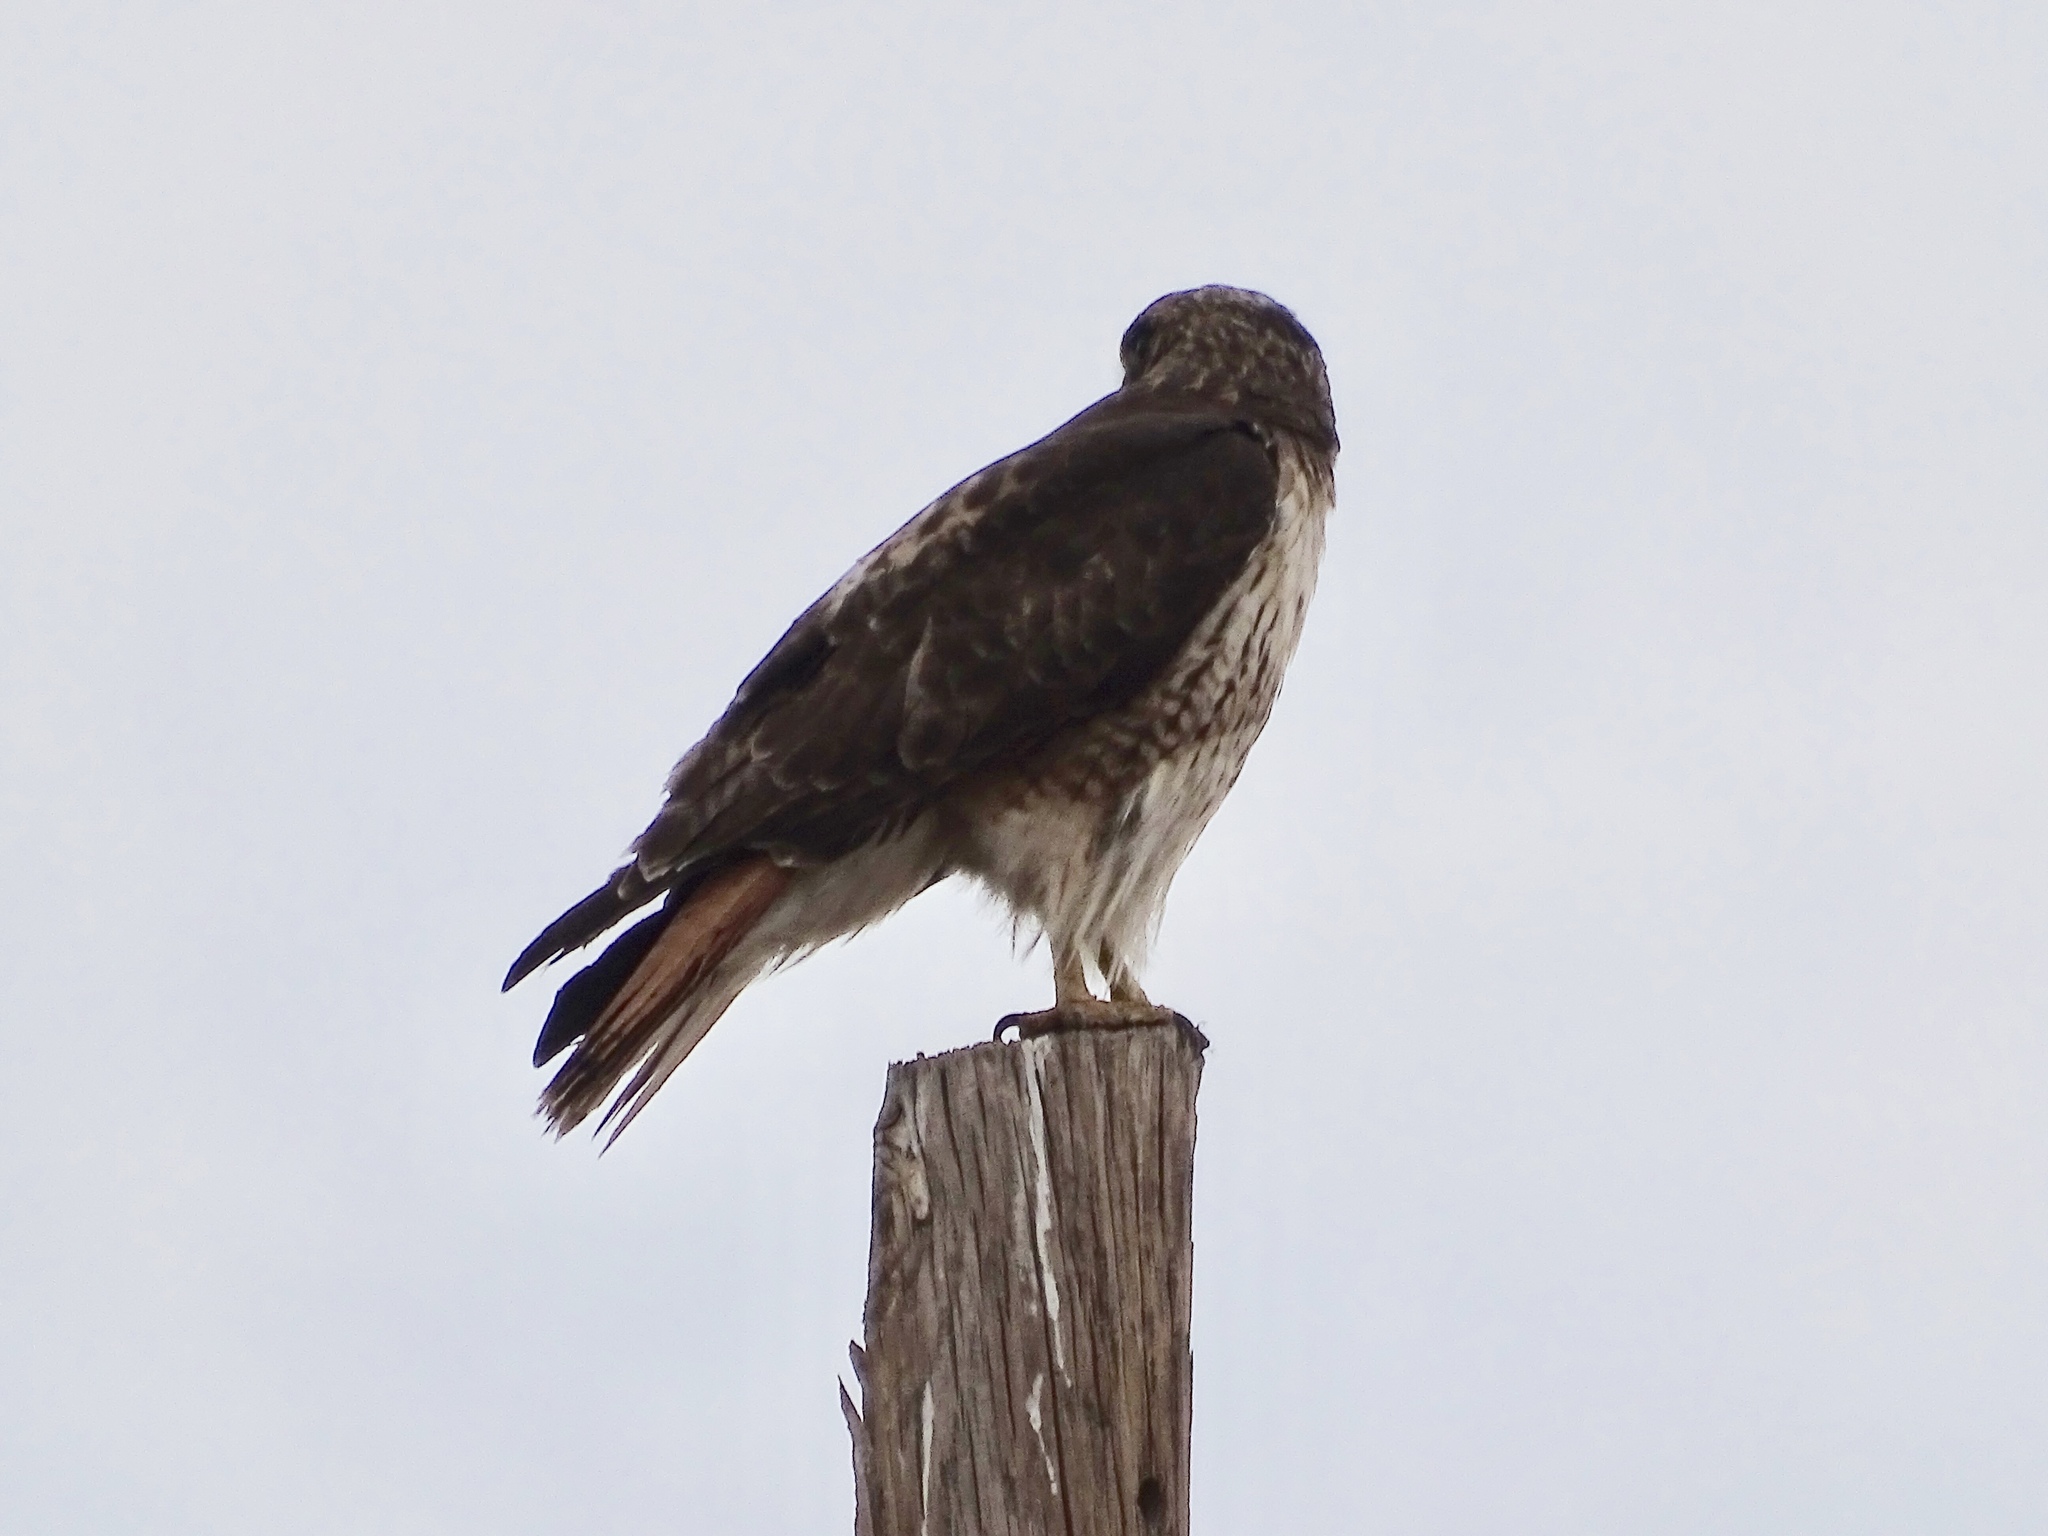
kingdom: Animalia
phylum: Chordata
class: Aves
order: Accipitriformes
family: Accipitridae
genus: Buteo
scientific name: Buteo jamaicensis
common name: Red-tailed hawk
